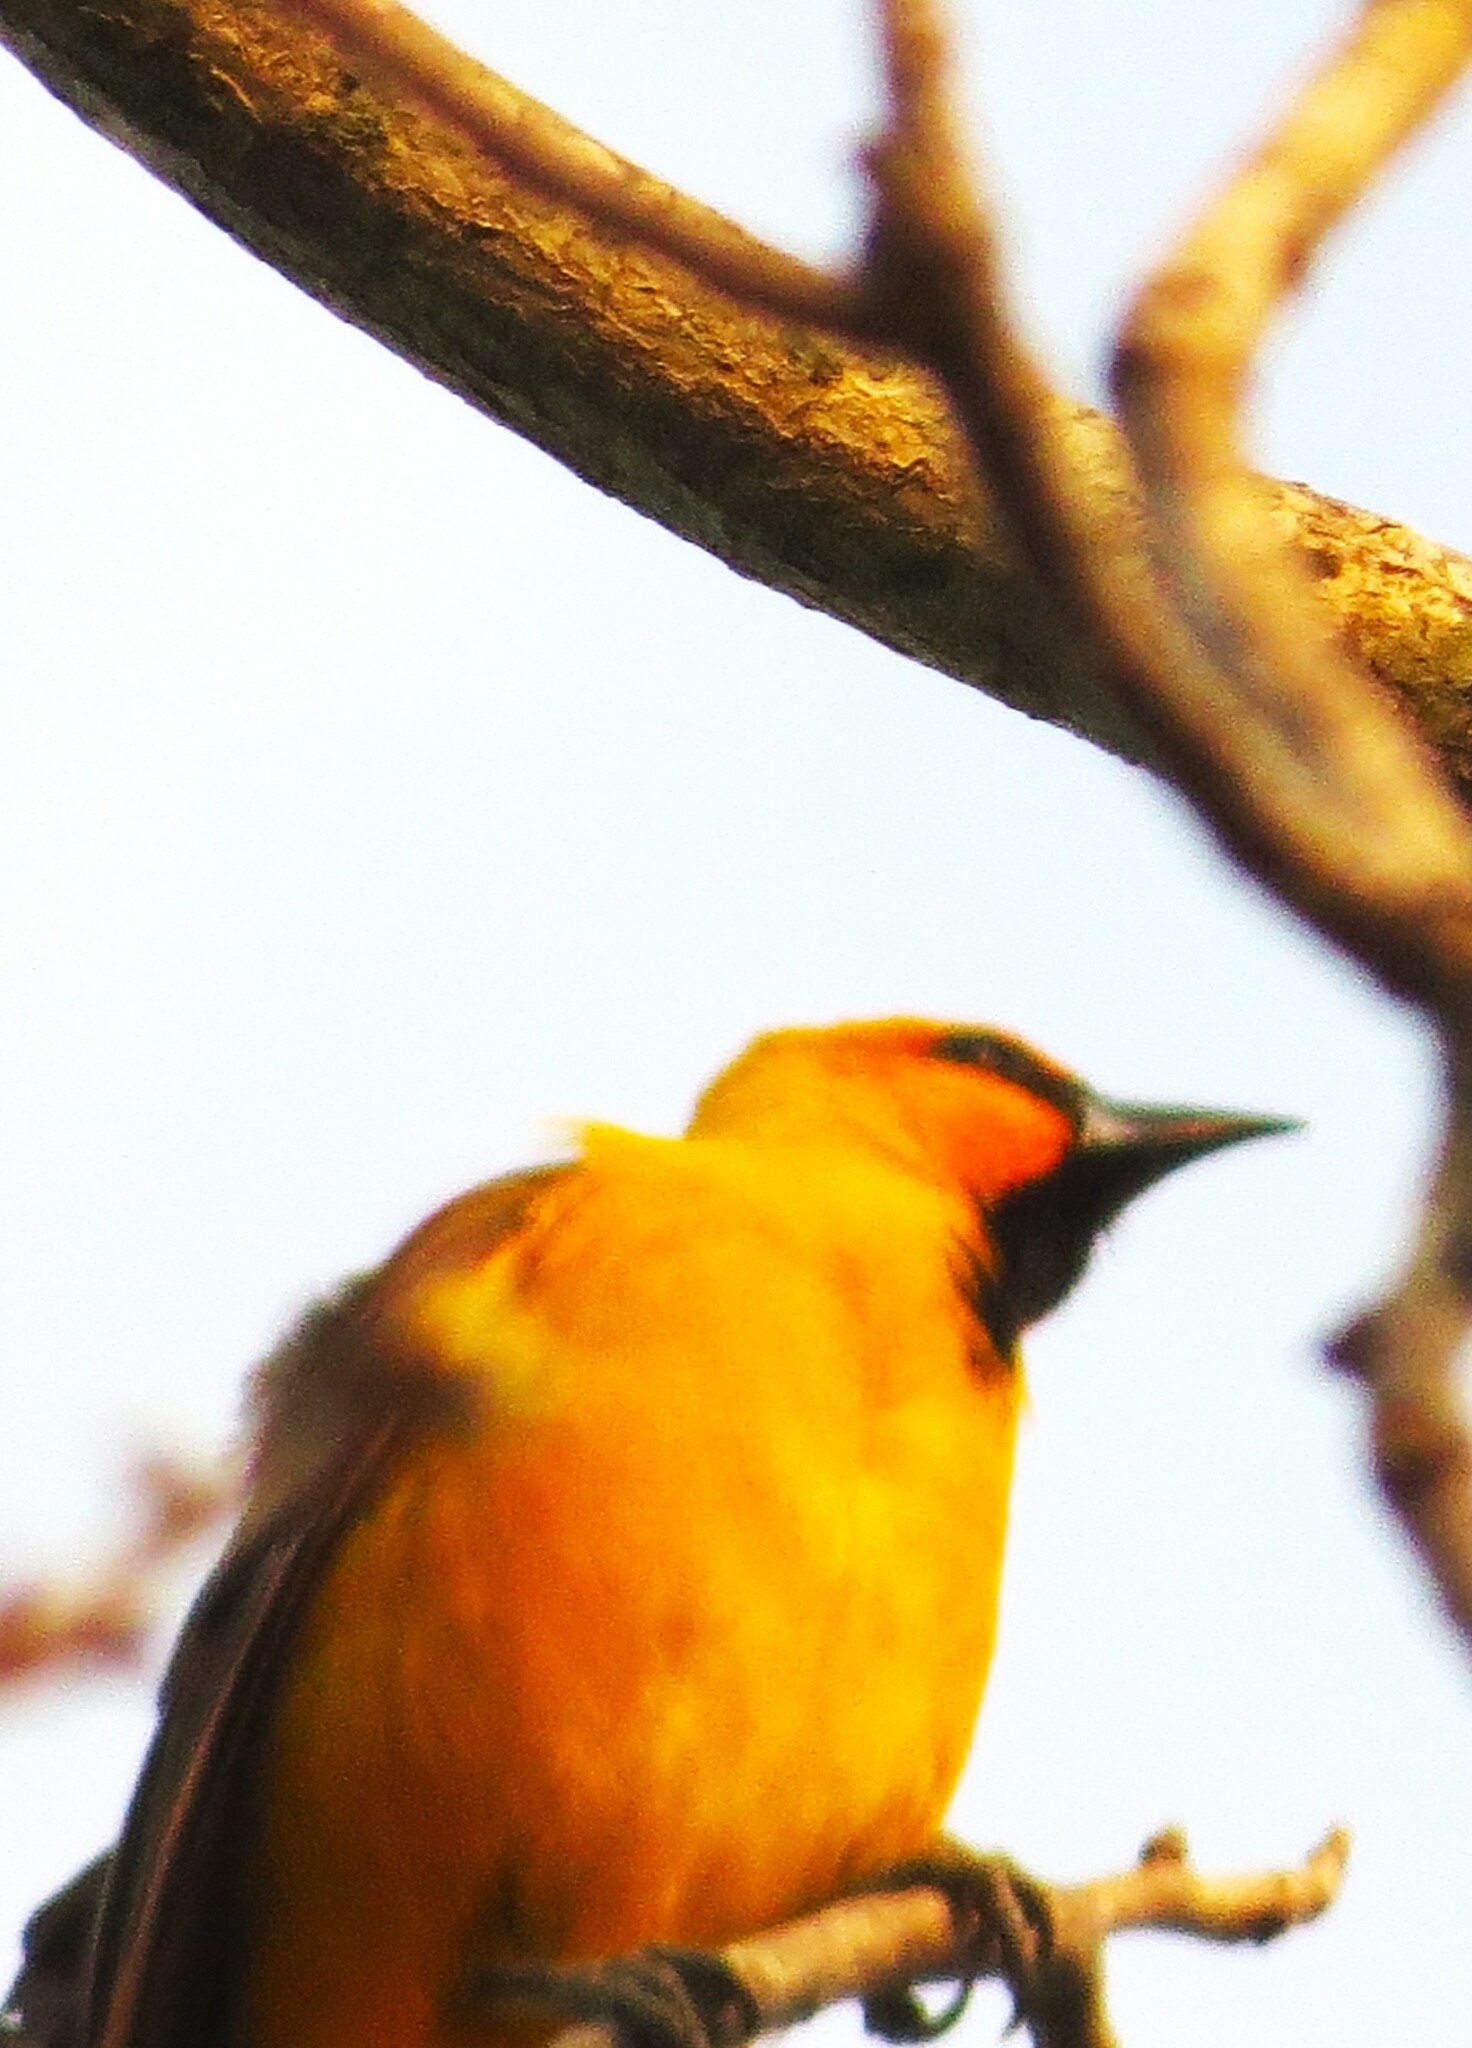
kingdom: Animalia
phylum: Chordata
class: Aves
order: Passeriformes
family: Icteridae
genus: Icterus
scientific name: Icterus gularis
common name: Altamira oriole
